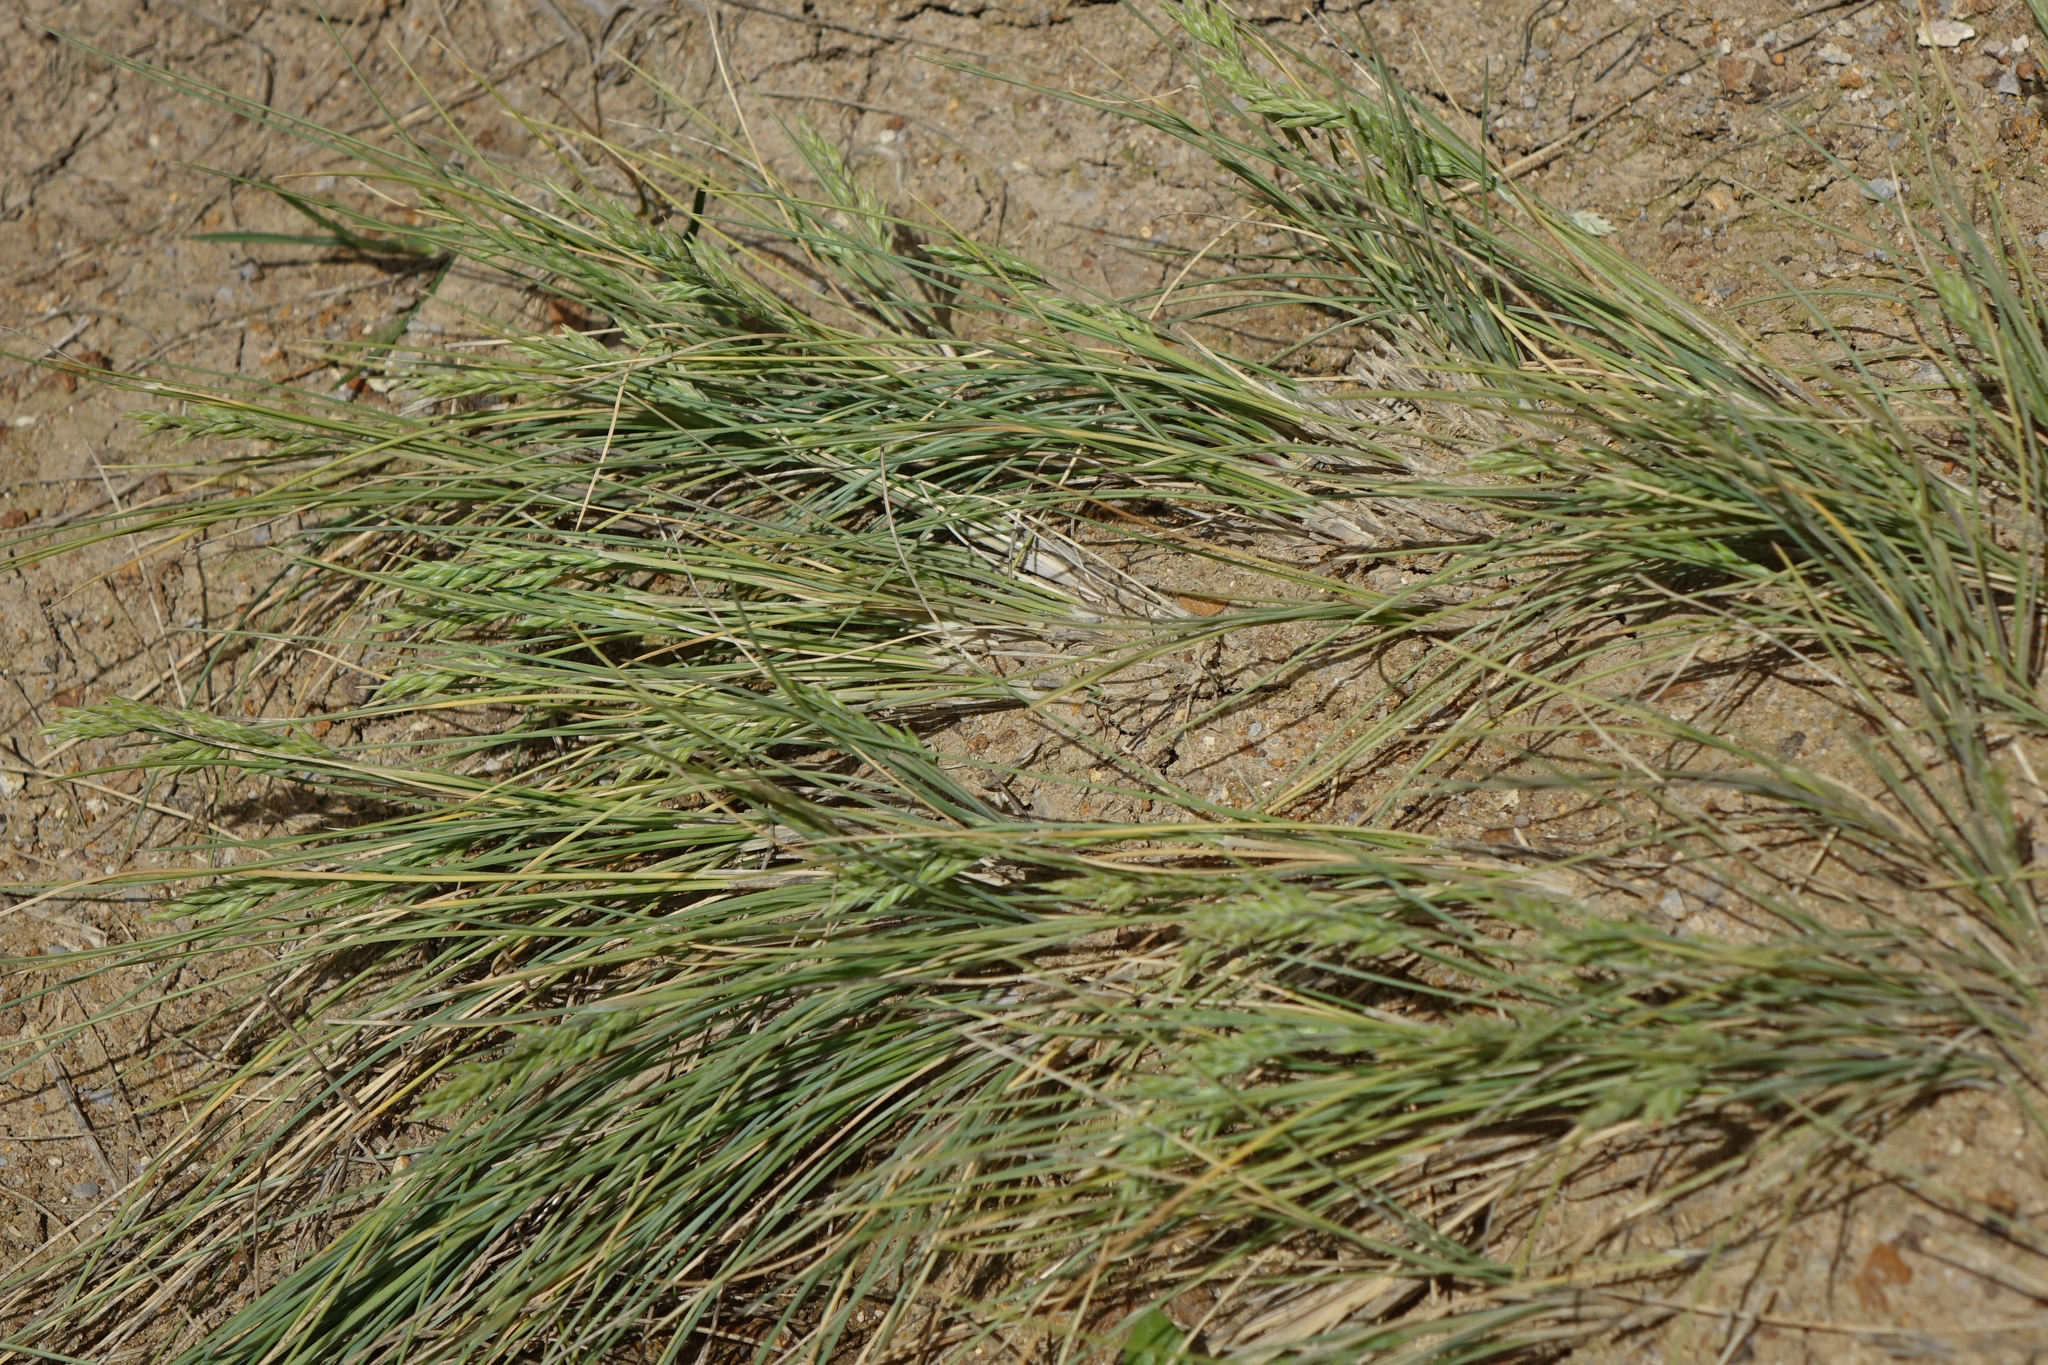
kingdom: Plantae
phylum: Tracheophyta
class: Liliopsida
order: Poales
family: Poaceae
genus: Poa
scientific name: Poa astonii
